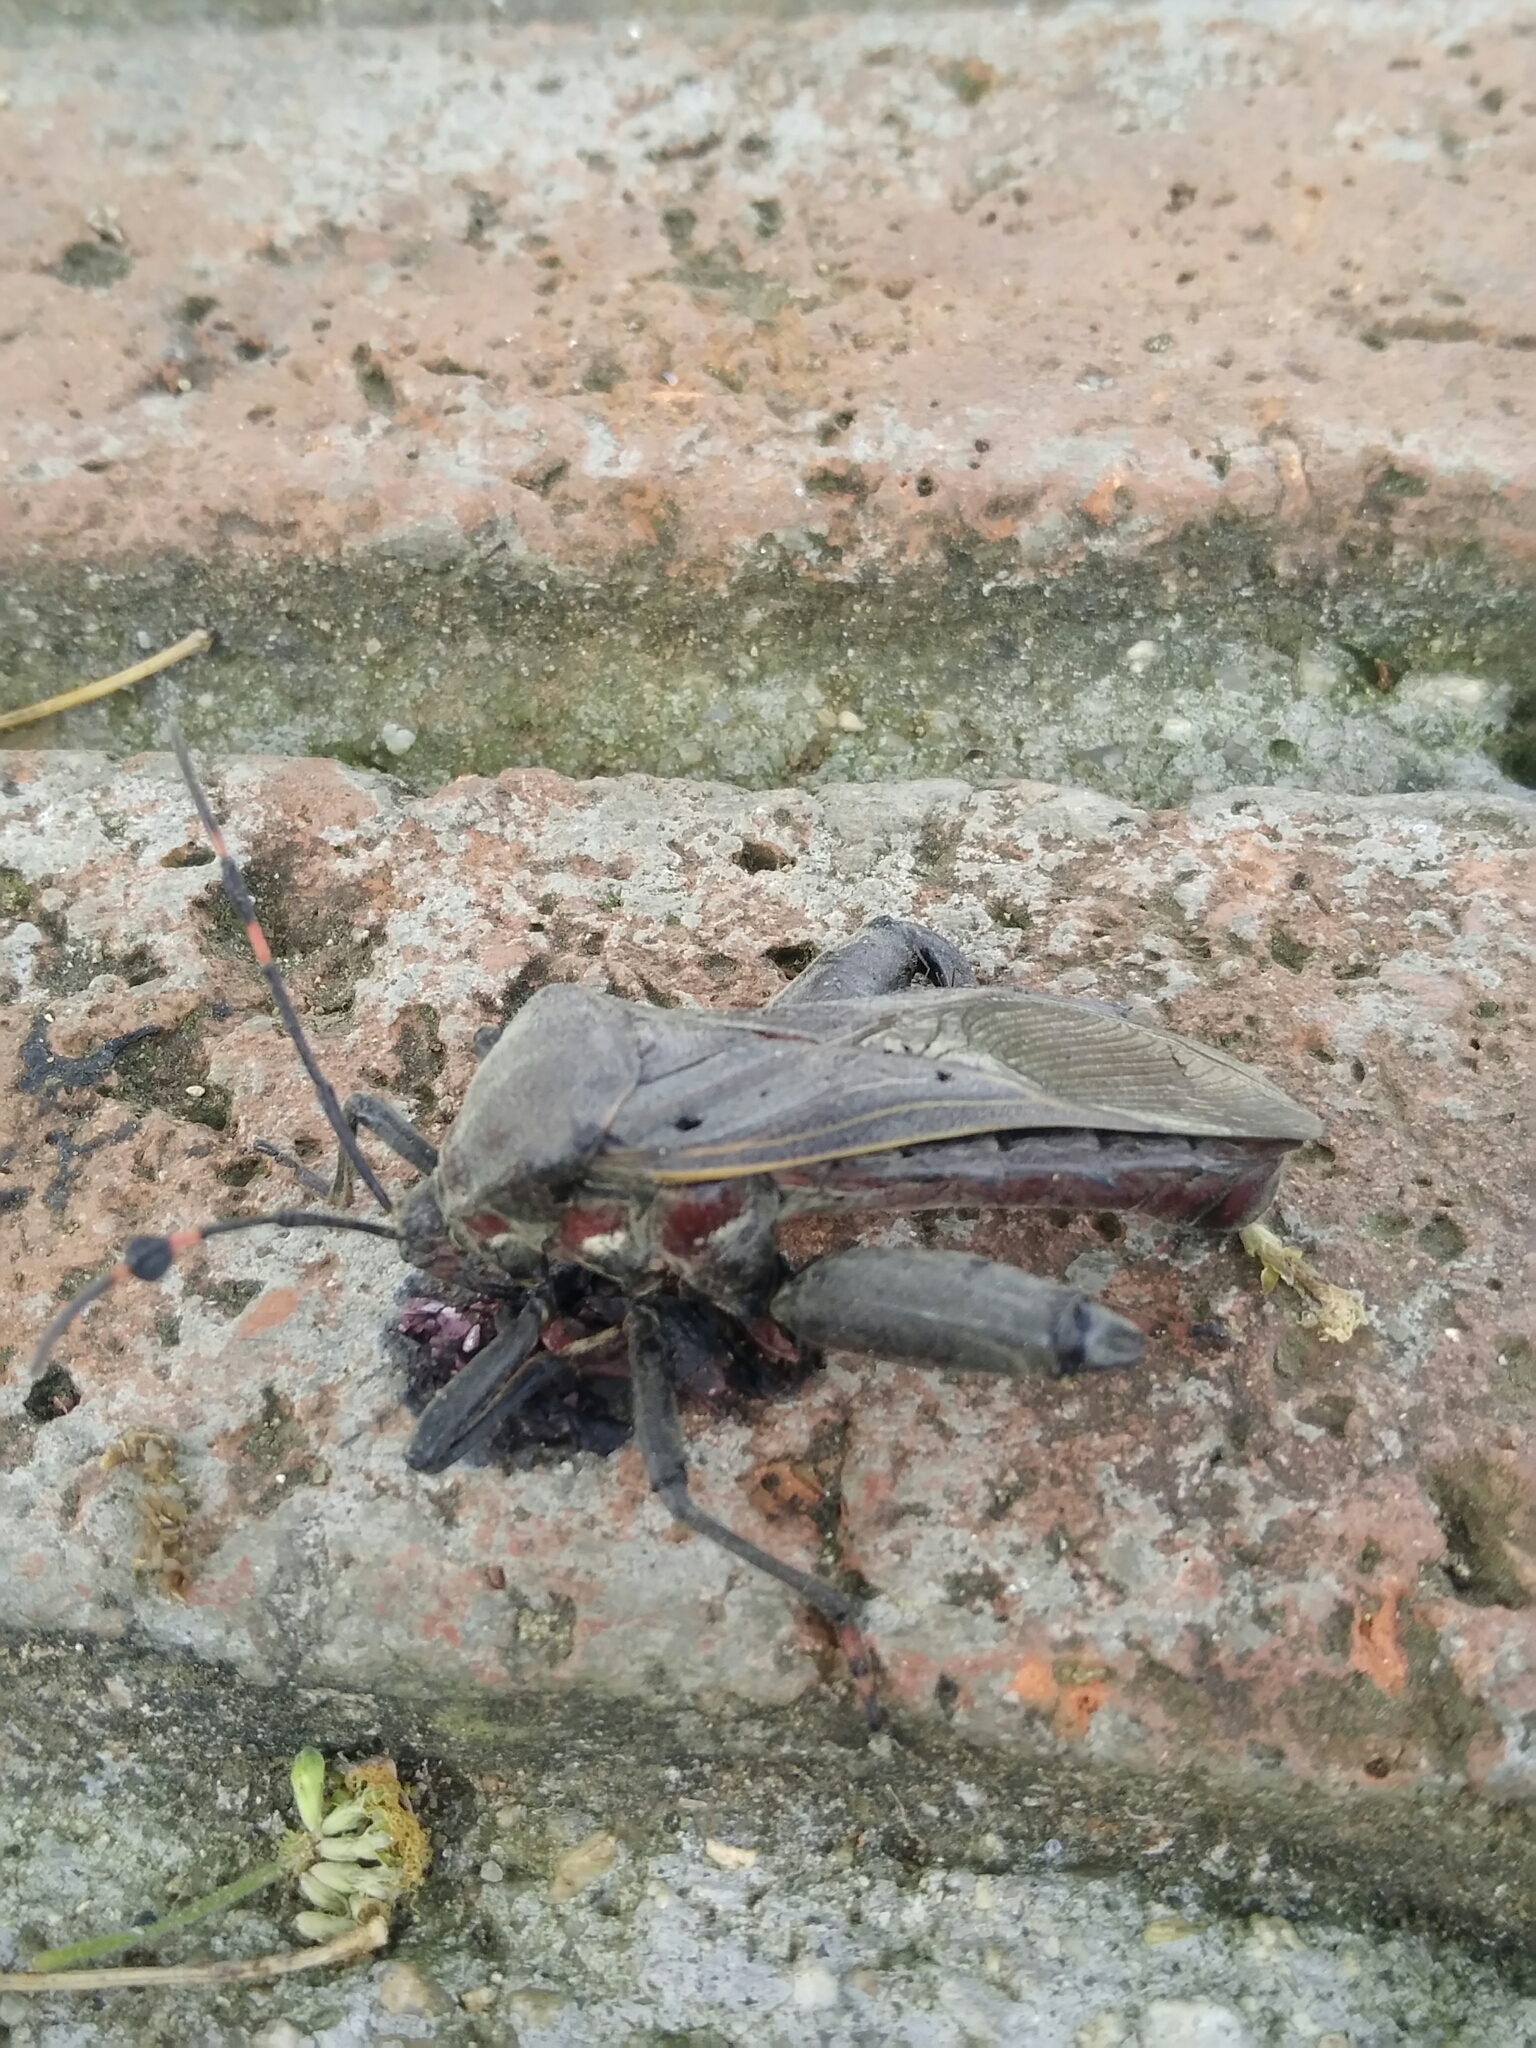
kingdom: Animalia
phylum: Arthropoda
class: Insecta
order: Hemiptera
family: Coreidae
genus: Pachylis
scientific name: Pachylis nervosus
